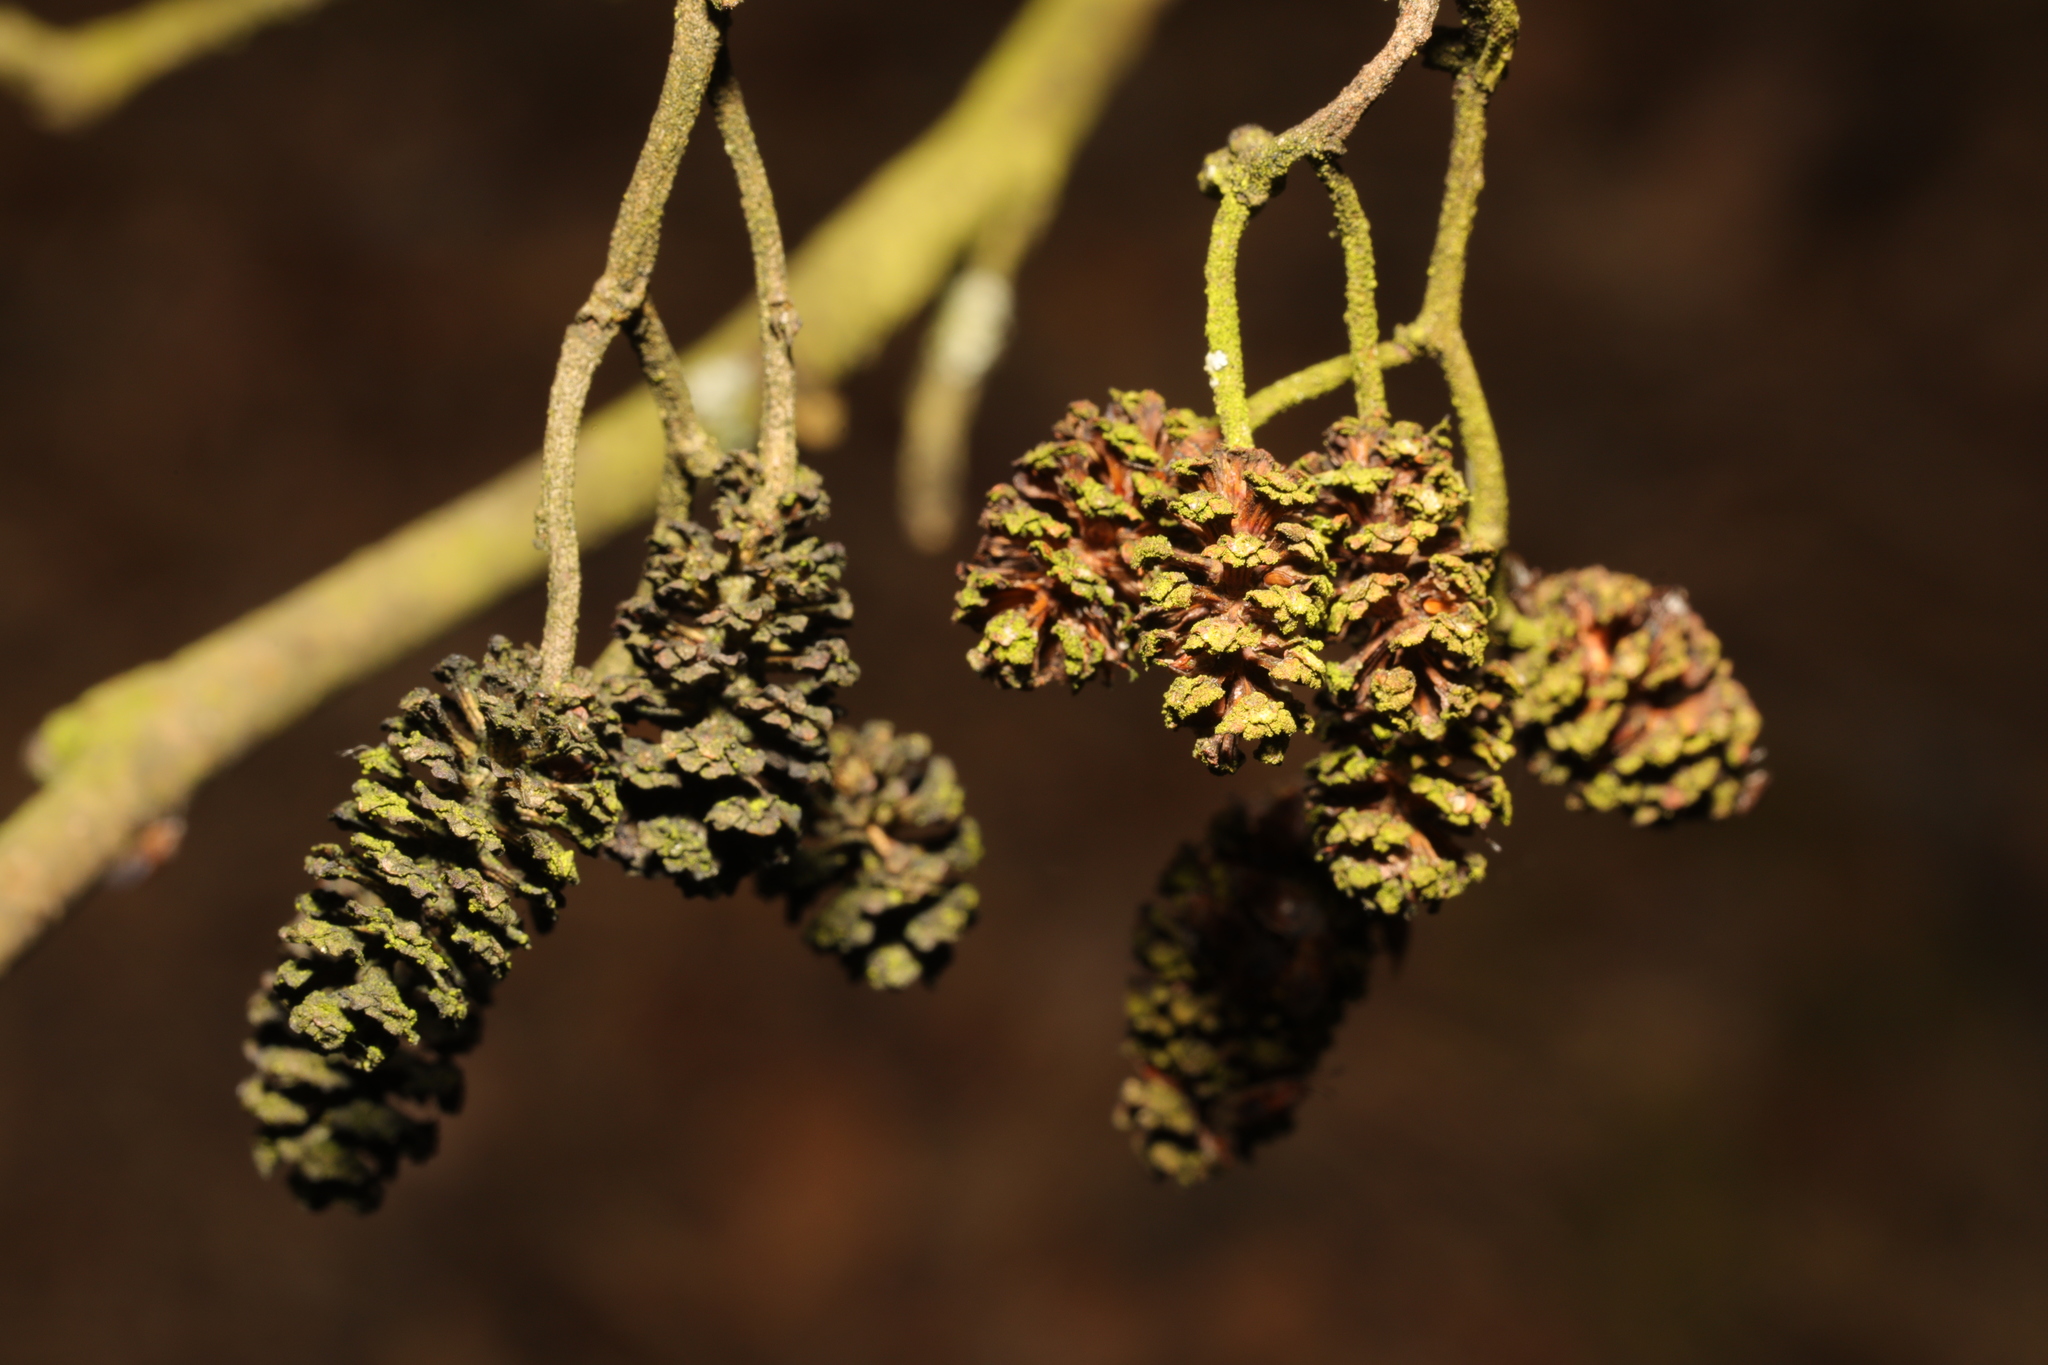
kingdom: Plantae
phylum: Tracheophyta
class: Magnoliopsida
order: Fagales
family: Betulaceae
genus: Alnus
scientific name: Alnus glutinosa
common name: Black alder
